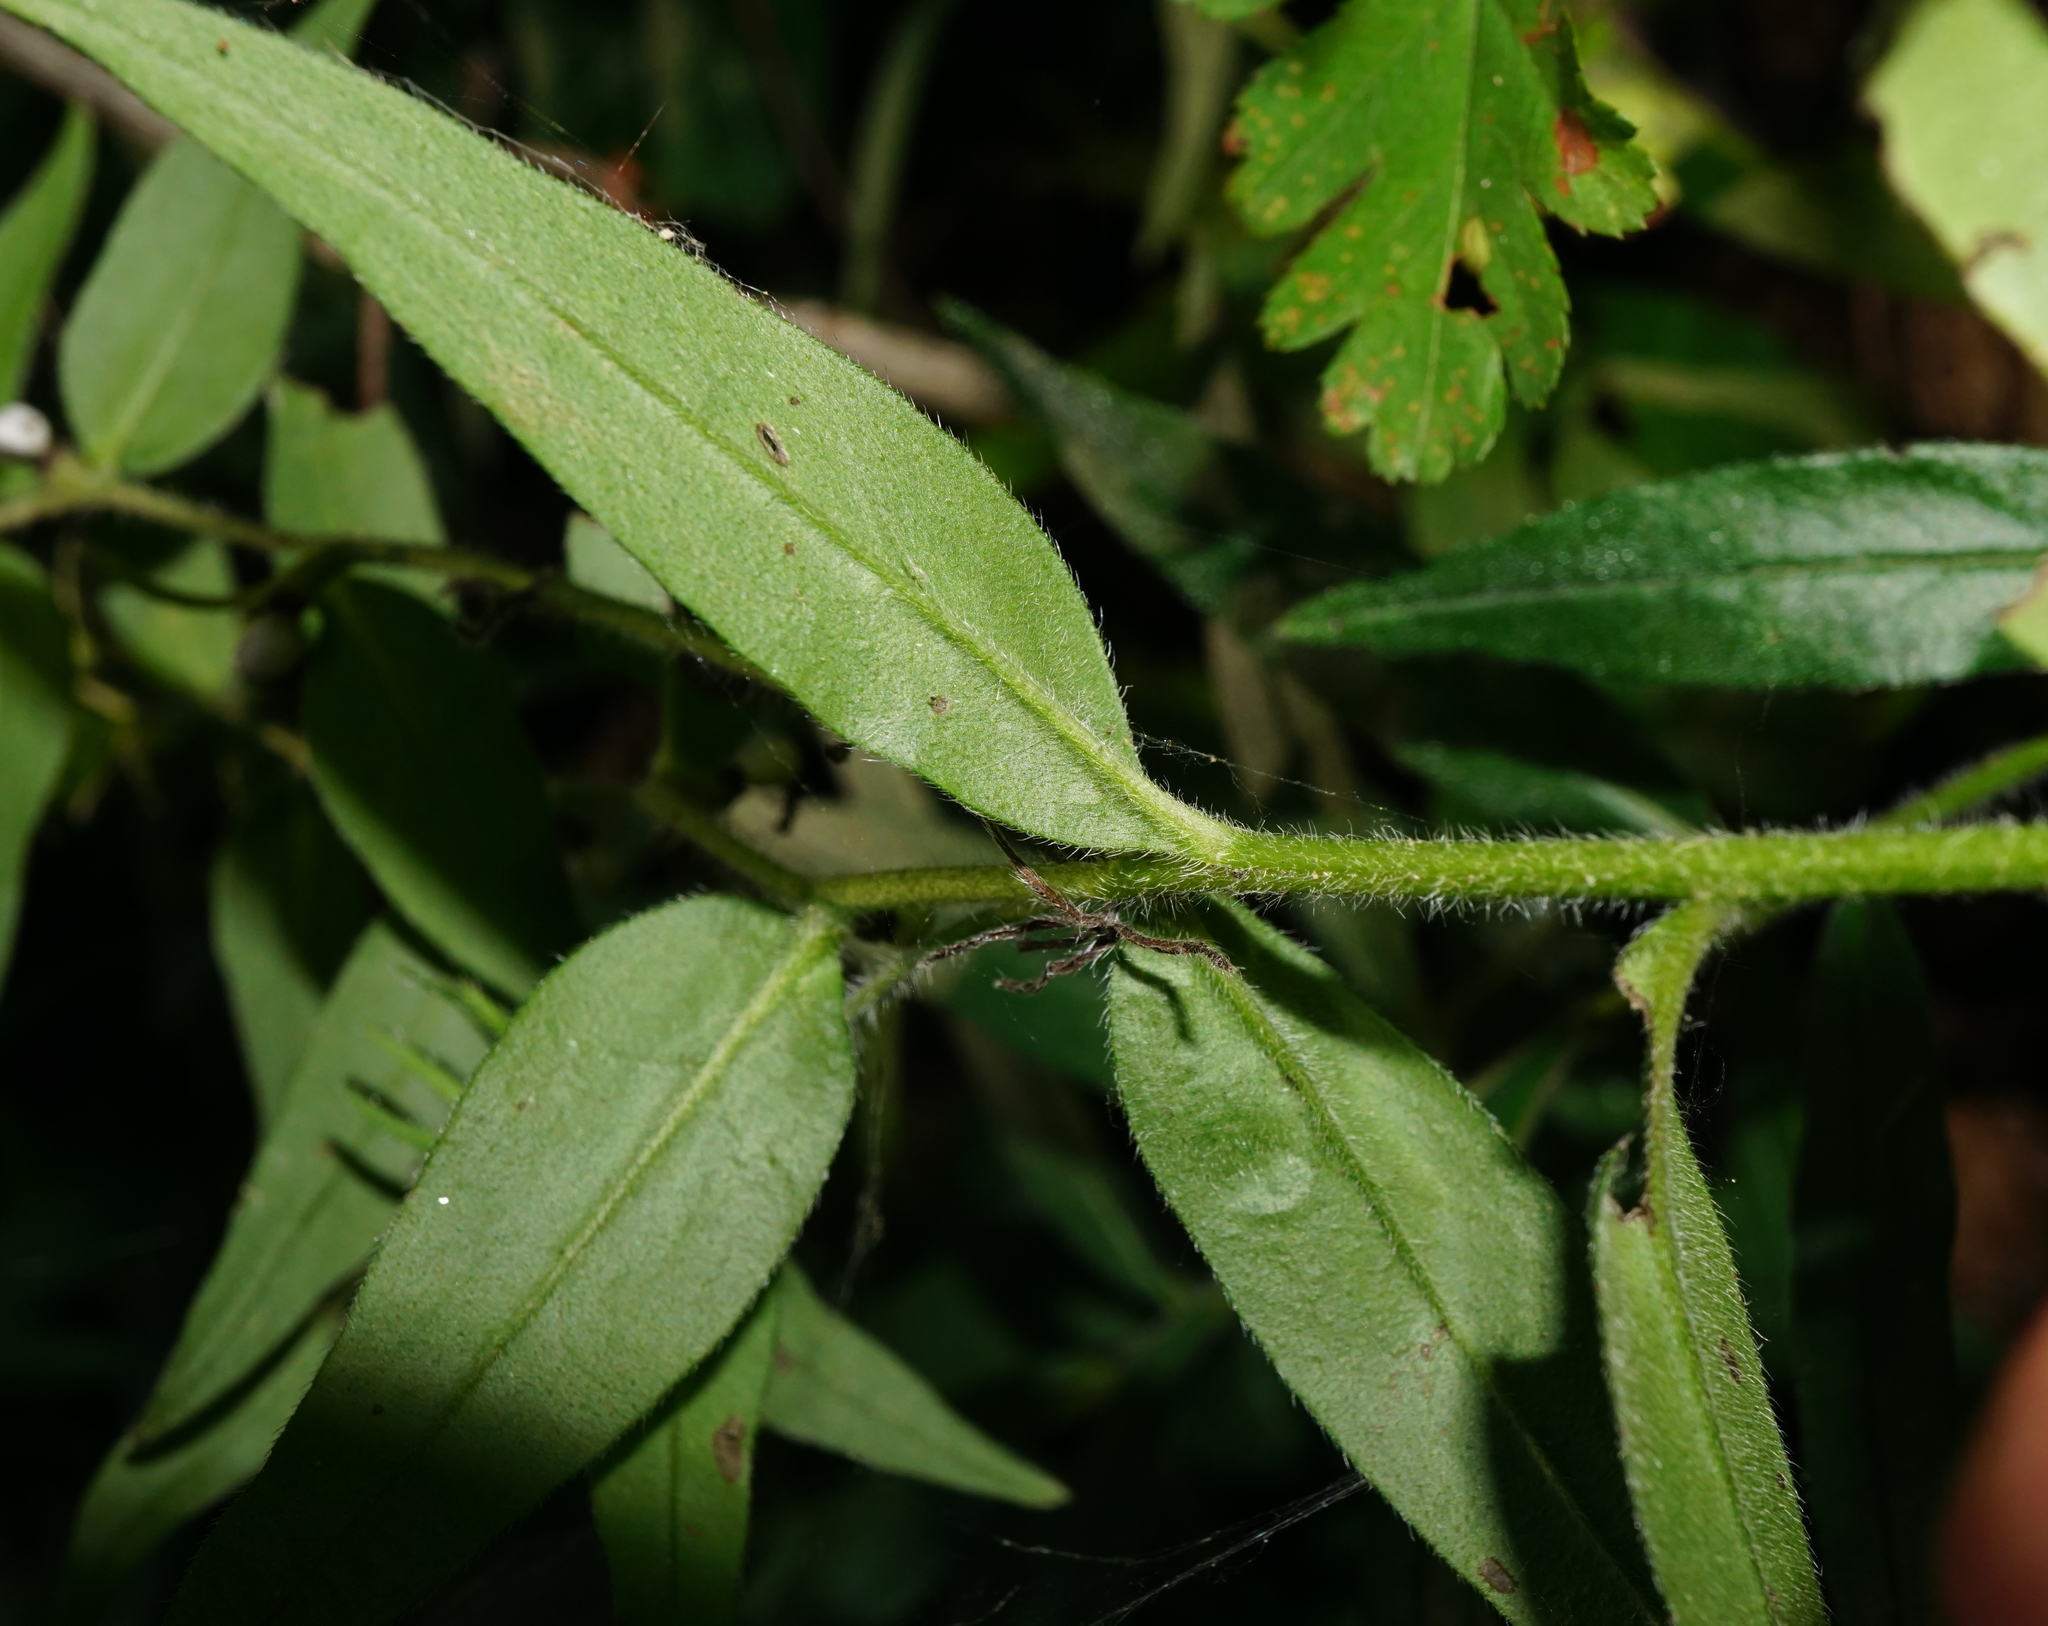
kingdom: Plantae
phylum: Tracheophyta
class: Magnoliopsida
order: Boraginales
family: Boraginaceae
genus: Aegonychon
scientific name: Aegonychon purpurocaeruleum
